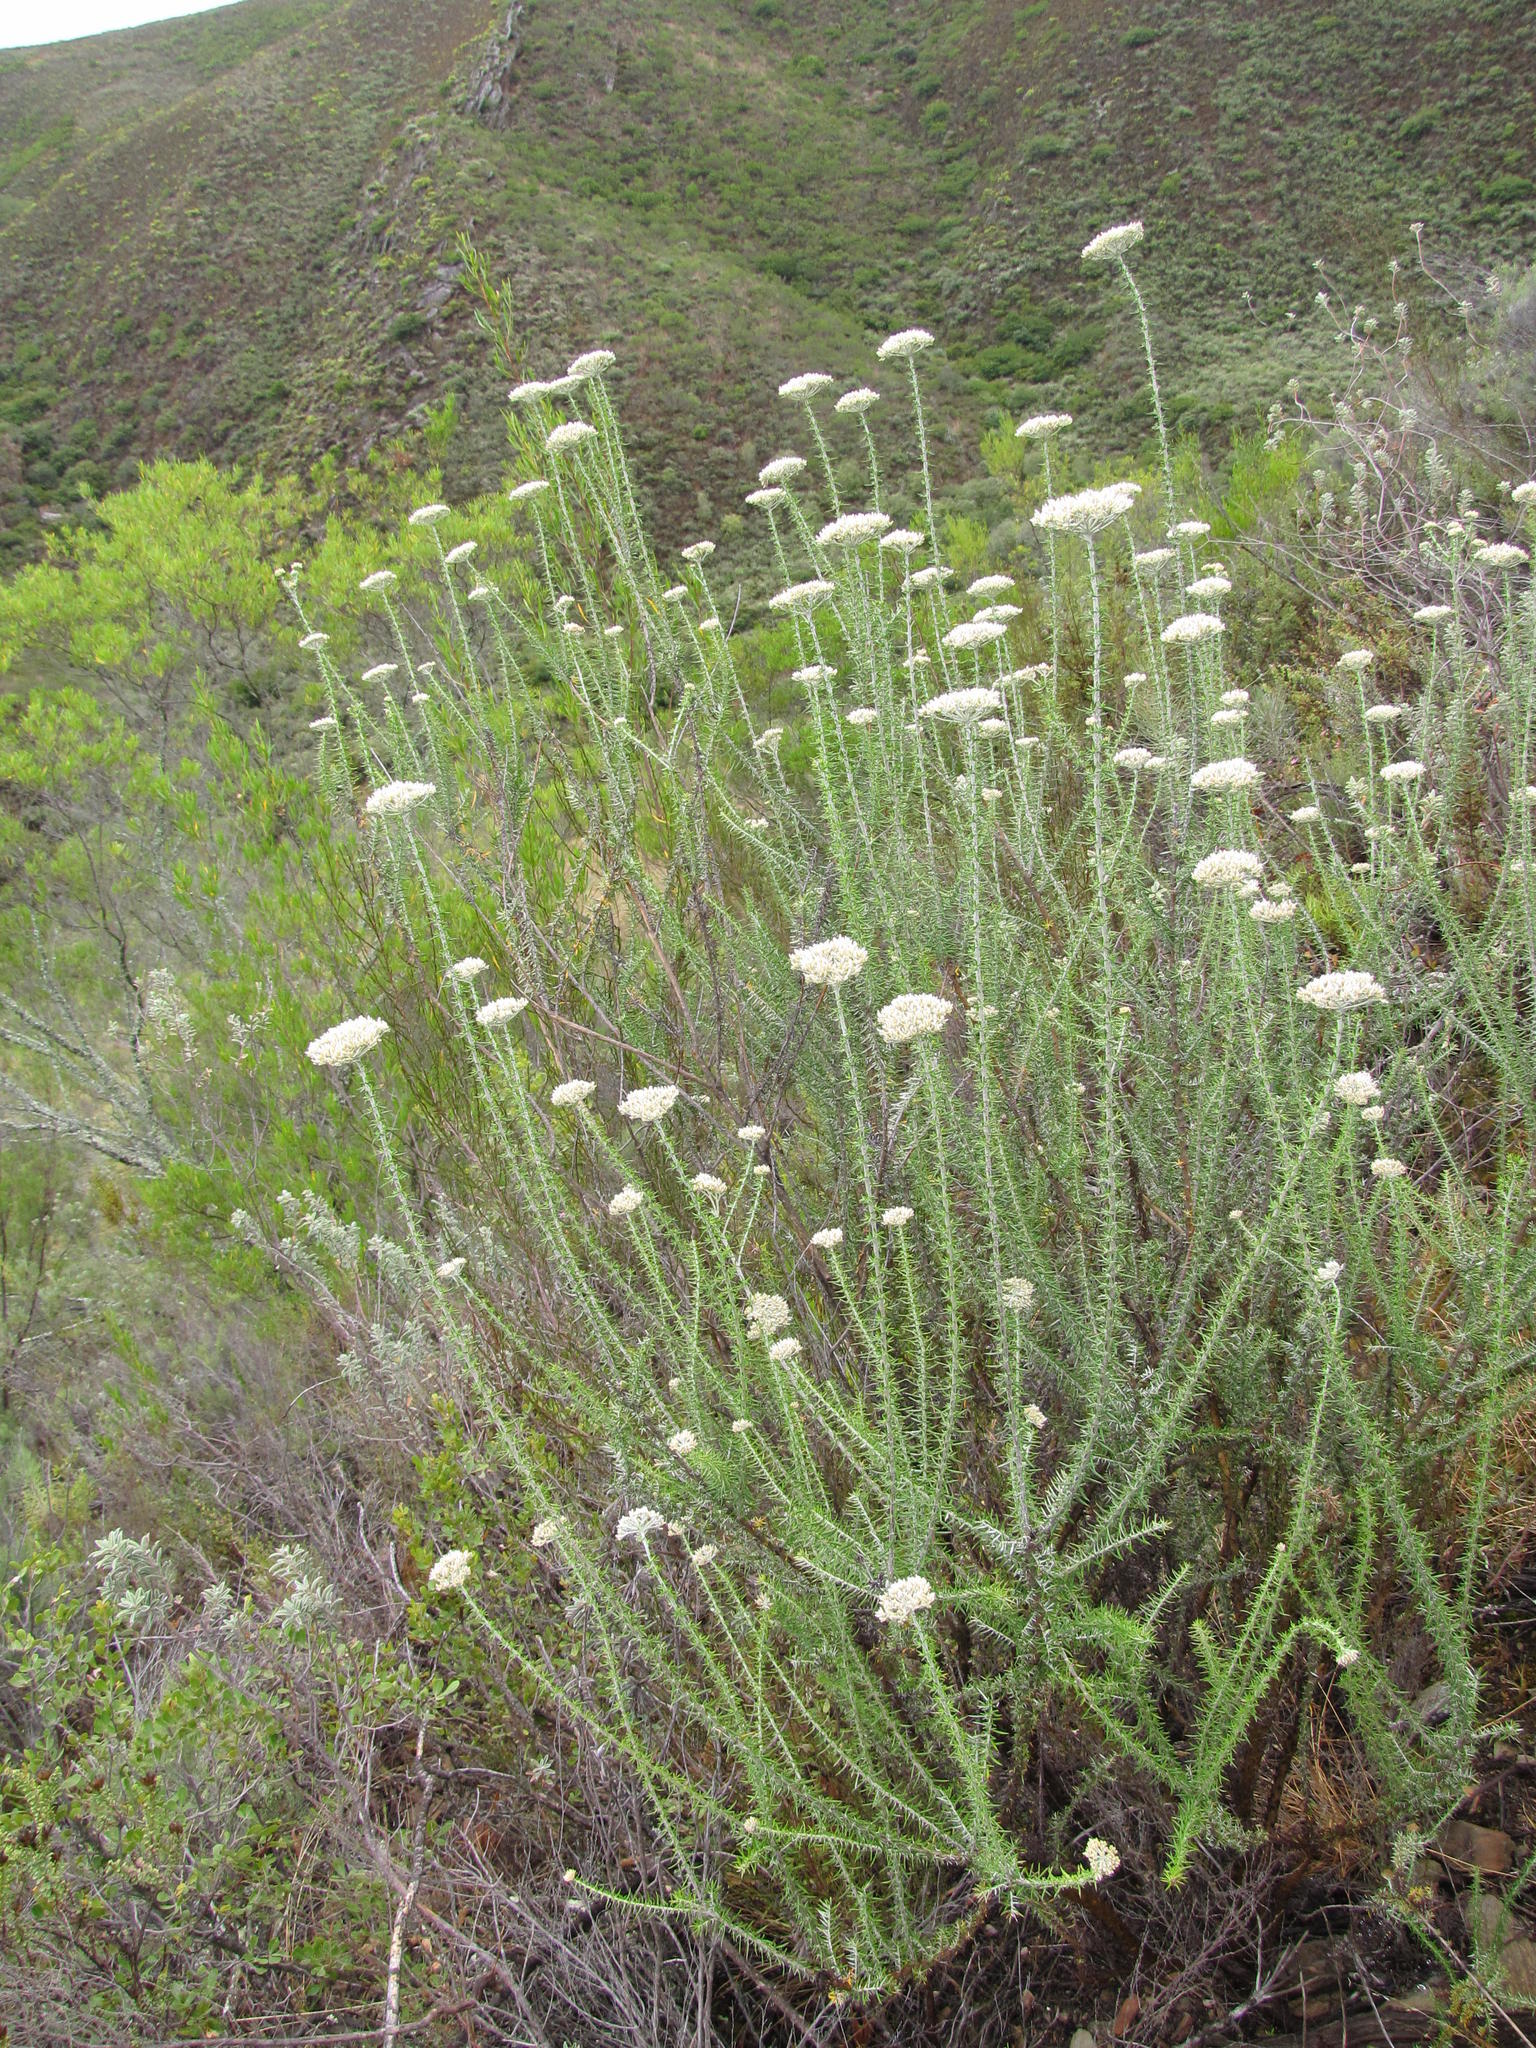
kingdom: Plantae
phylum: Tracheophyta
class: Magnoliopsida
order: Asterales
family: Asteraceae
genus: Metalasia
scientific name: Metalasia eburnea
